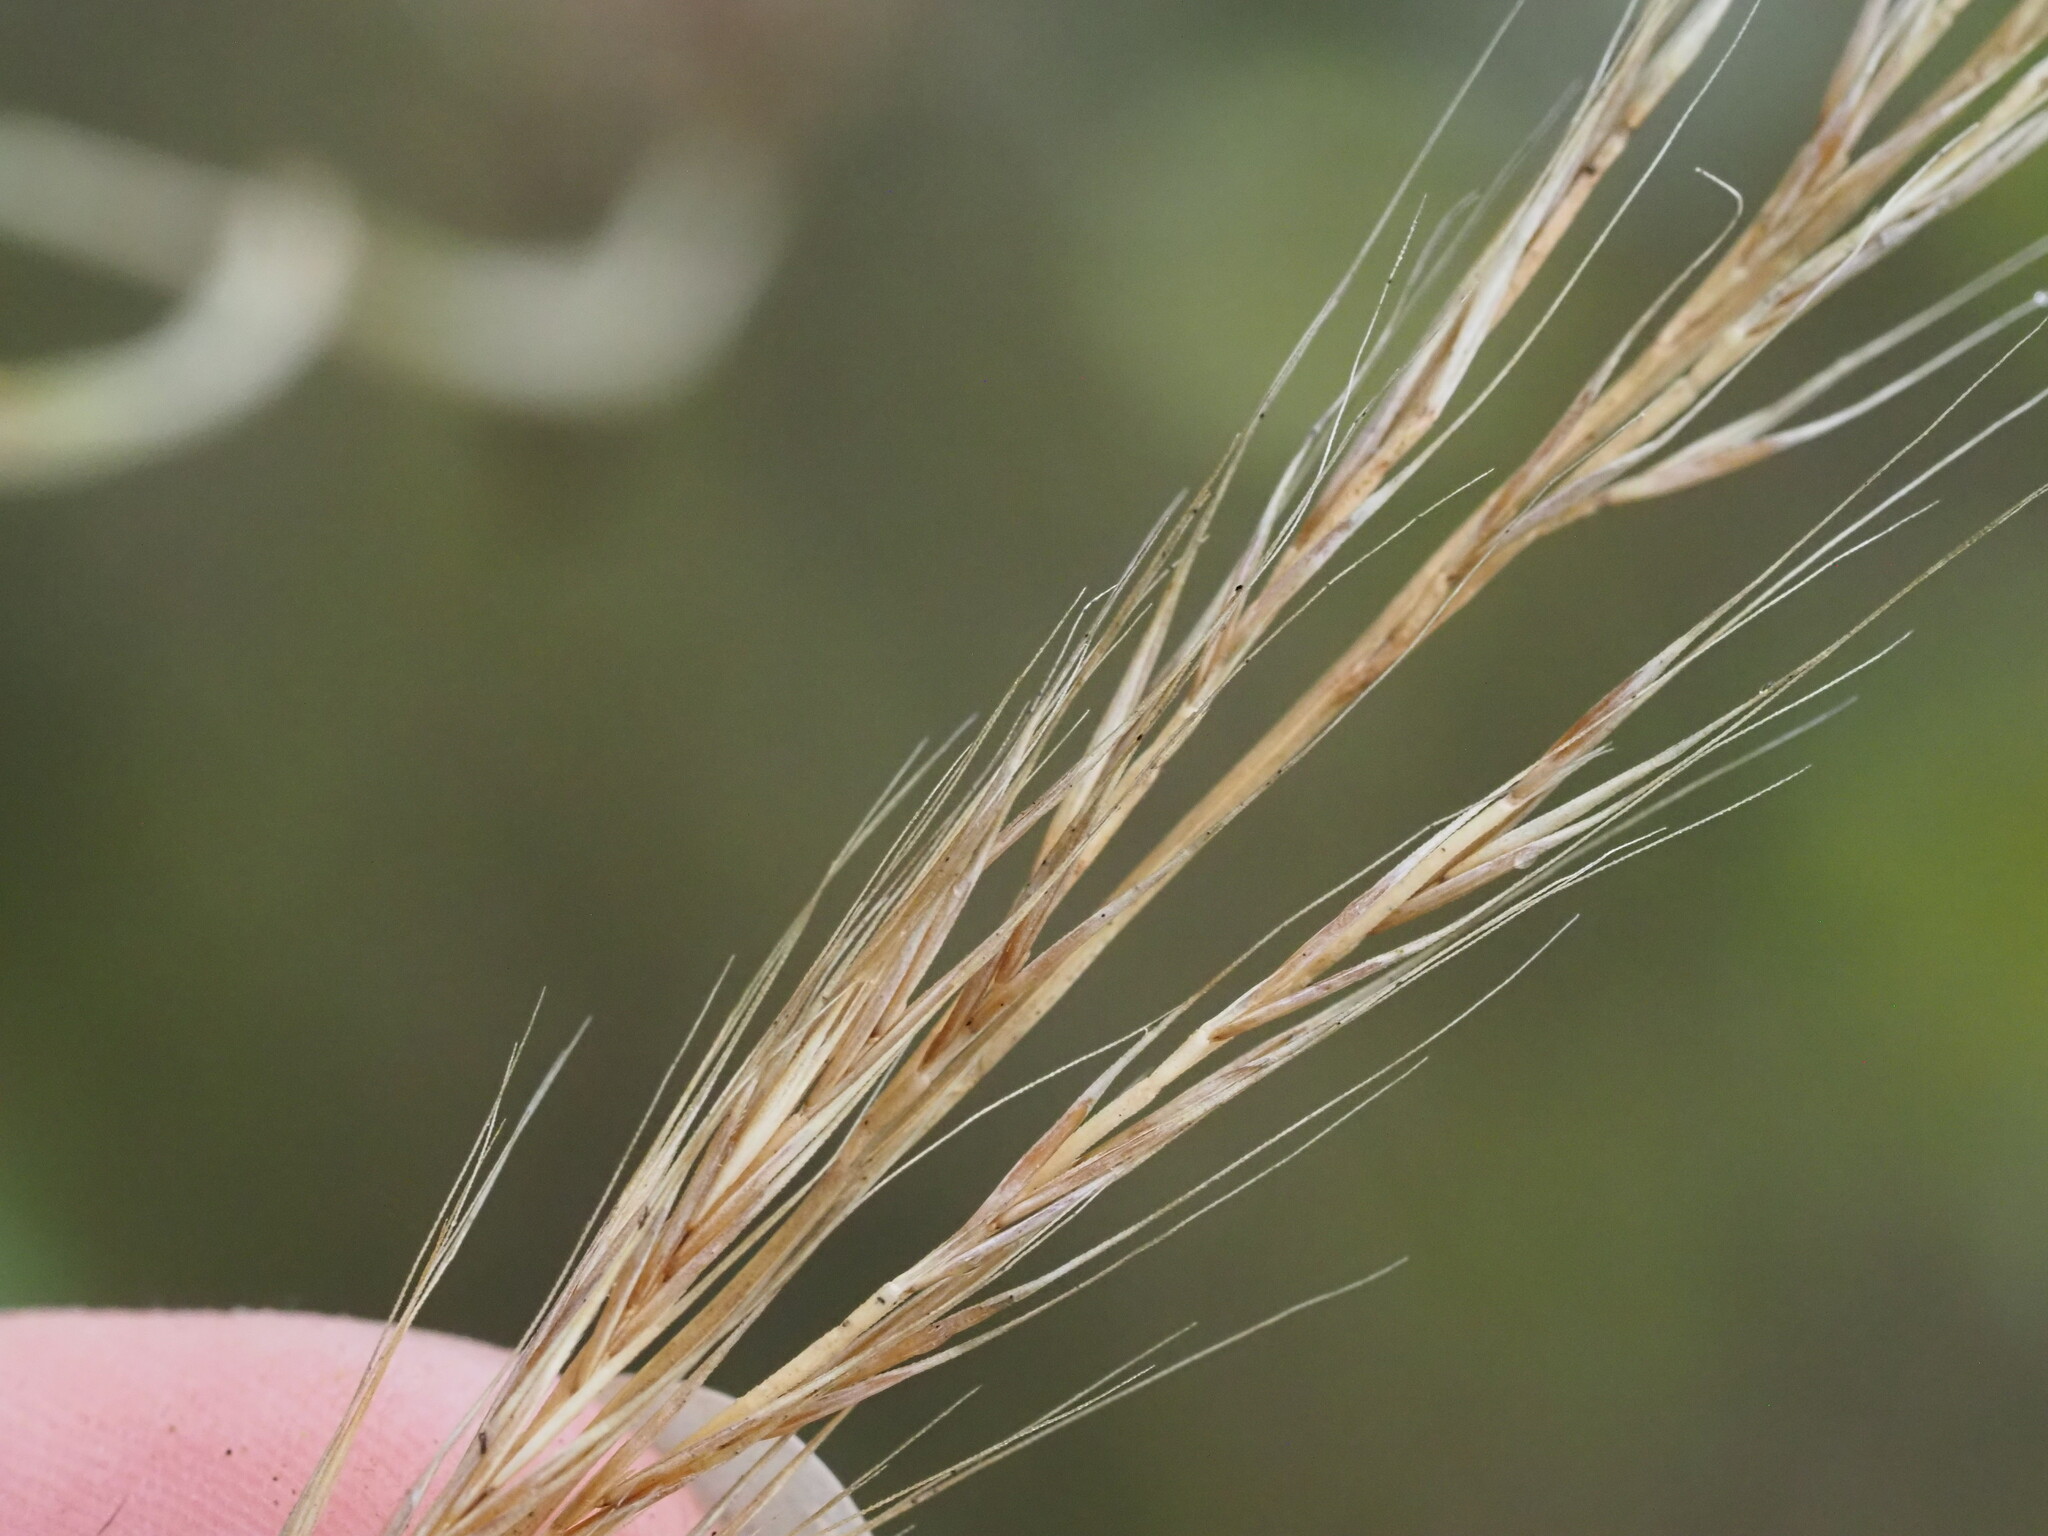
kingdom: Plantae
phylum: Tracheophyta
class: Liliopsida
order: Poales
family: Poaceae
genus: Festuca
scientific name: Festuca myuros
